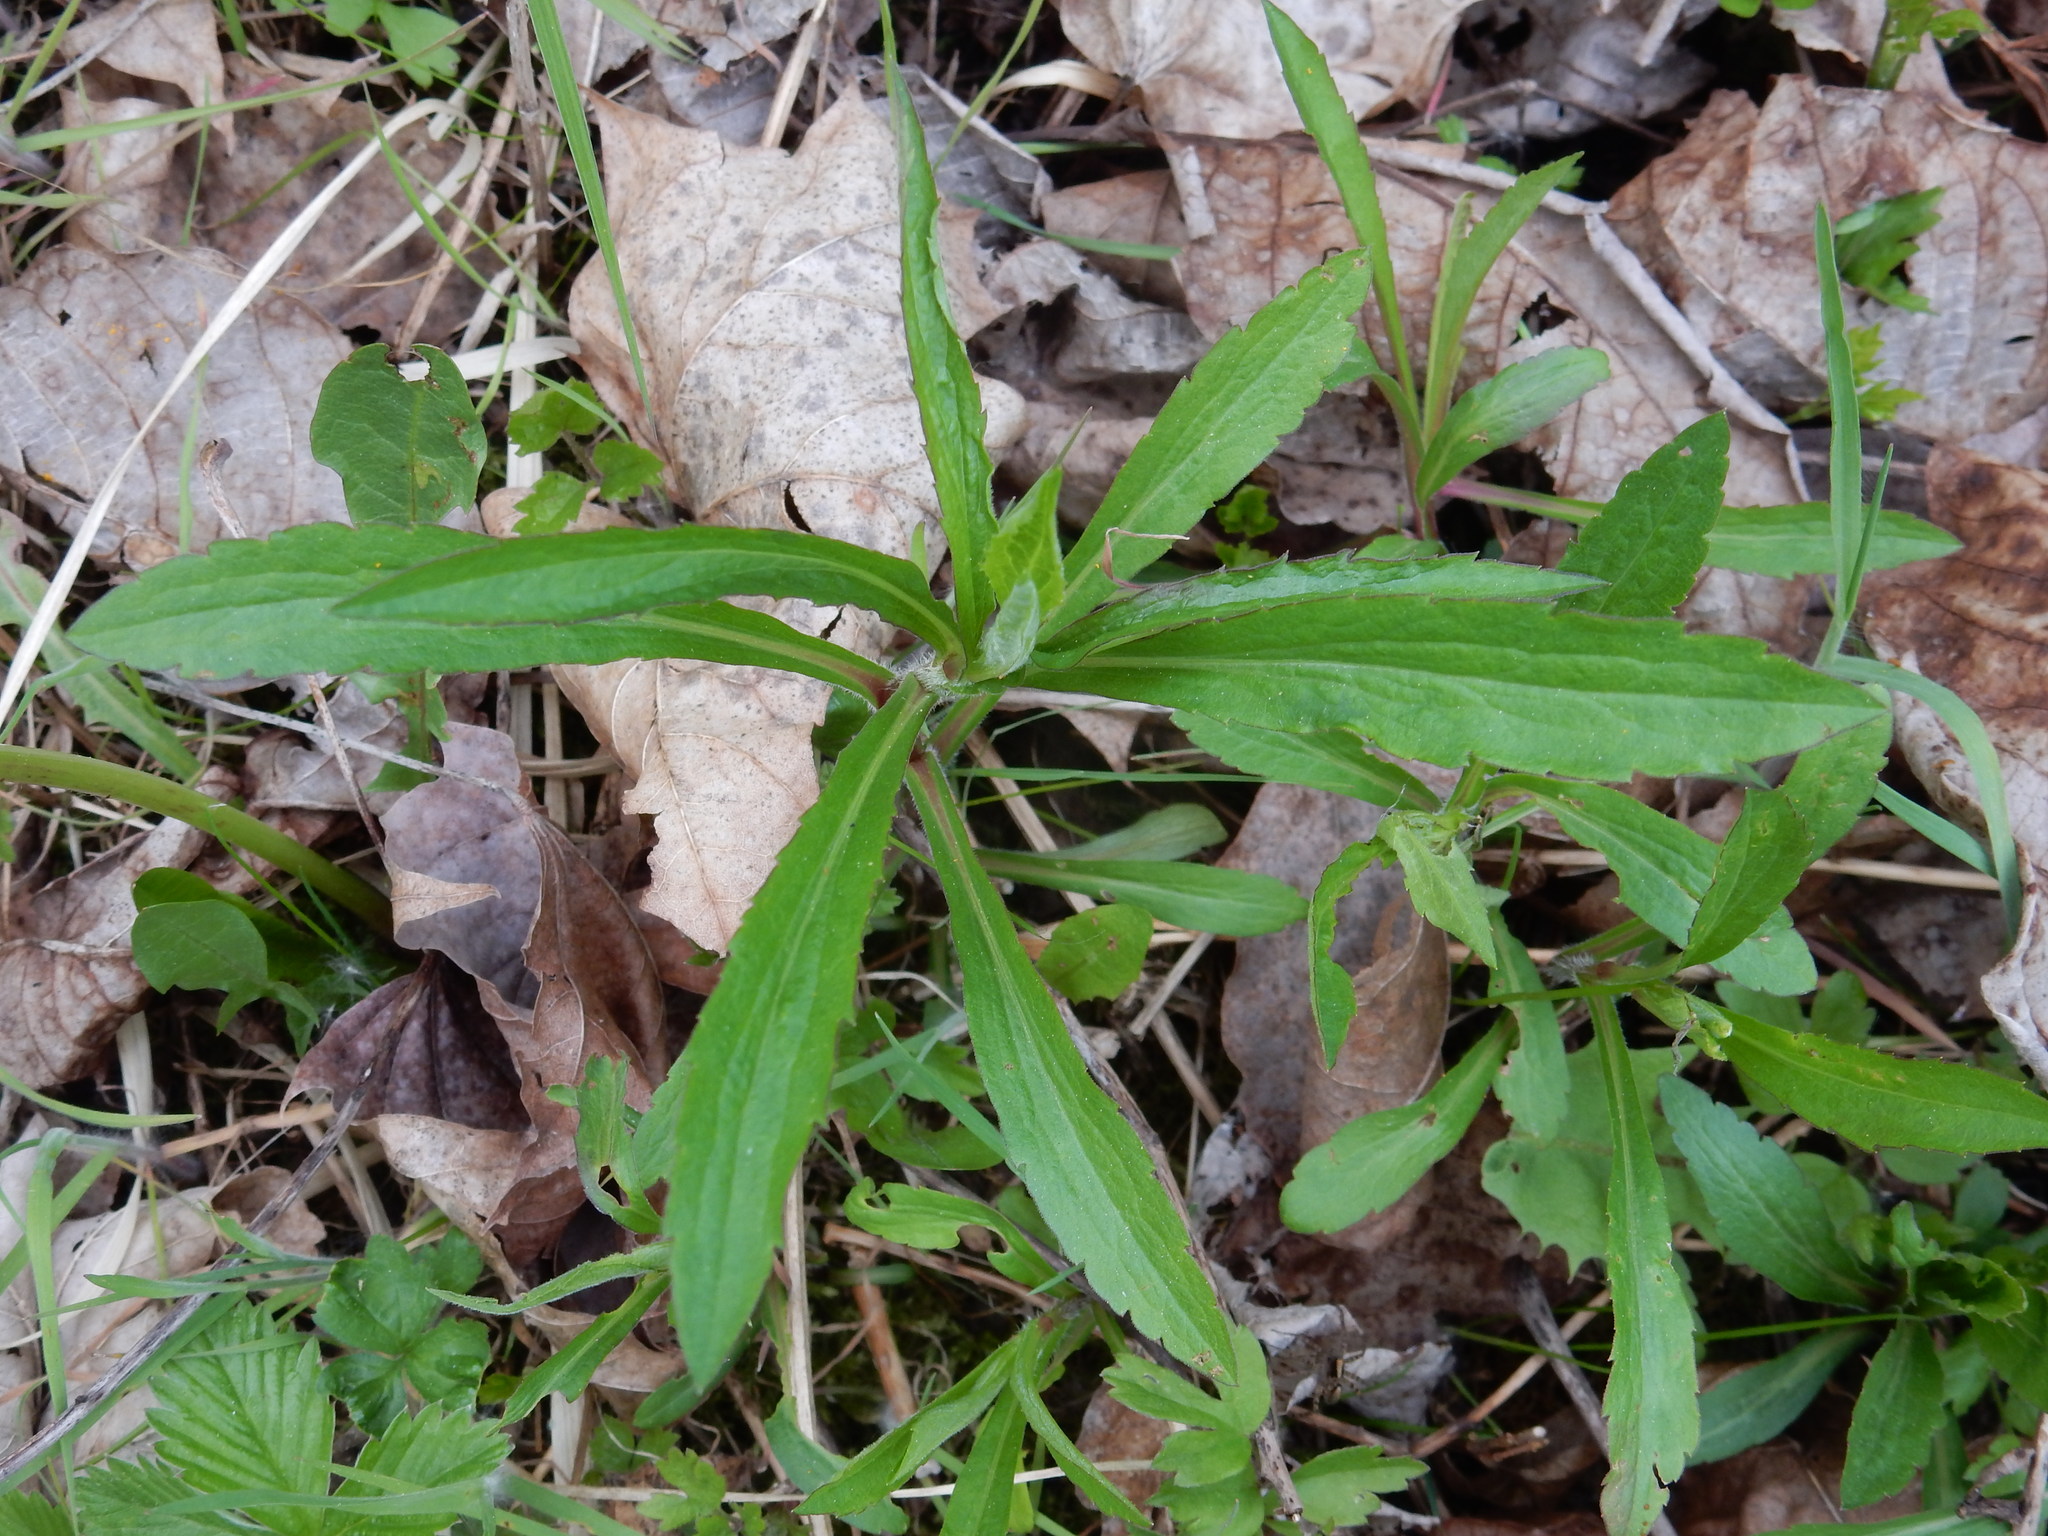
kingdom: Plantae
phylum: Tracheophyta
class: Magnoliopsida
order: Asterales
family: Asteraceae
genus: Solidago
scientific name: Solidago canadensis
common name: Canada goldenrod
